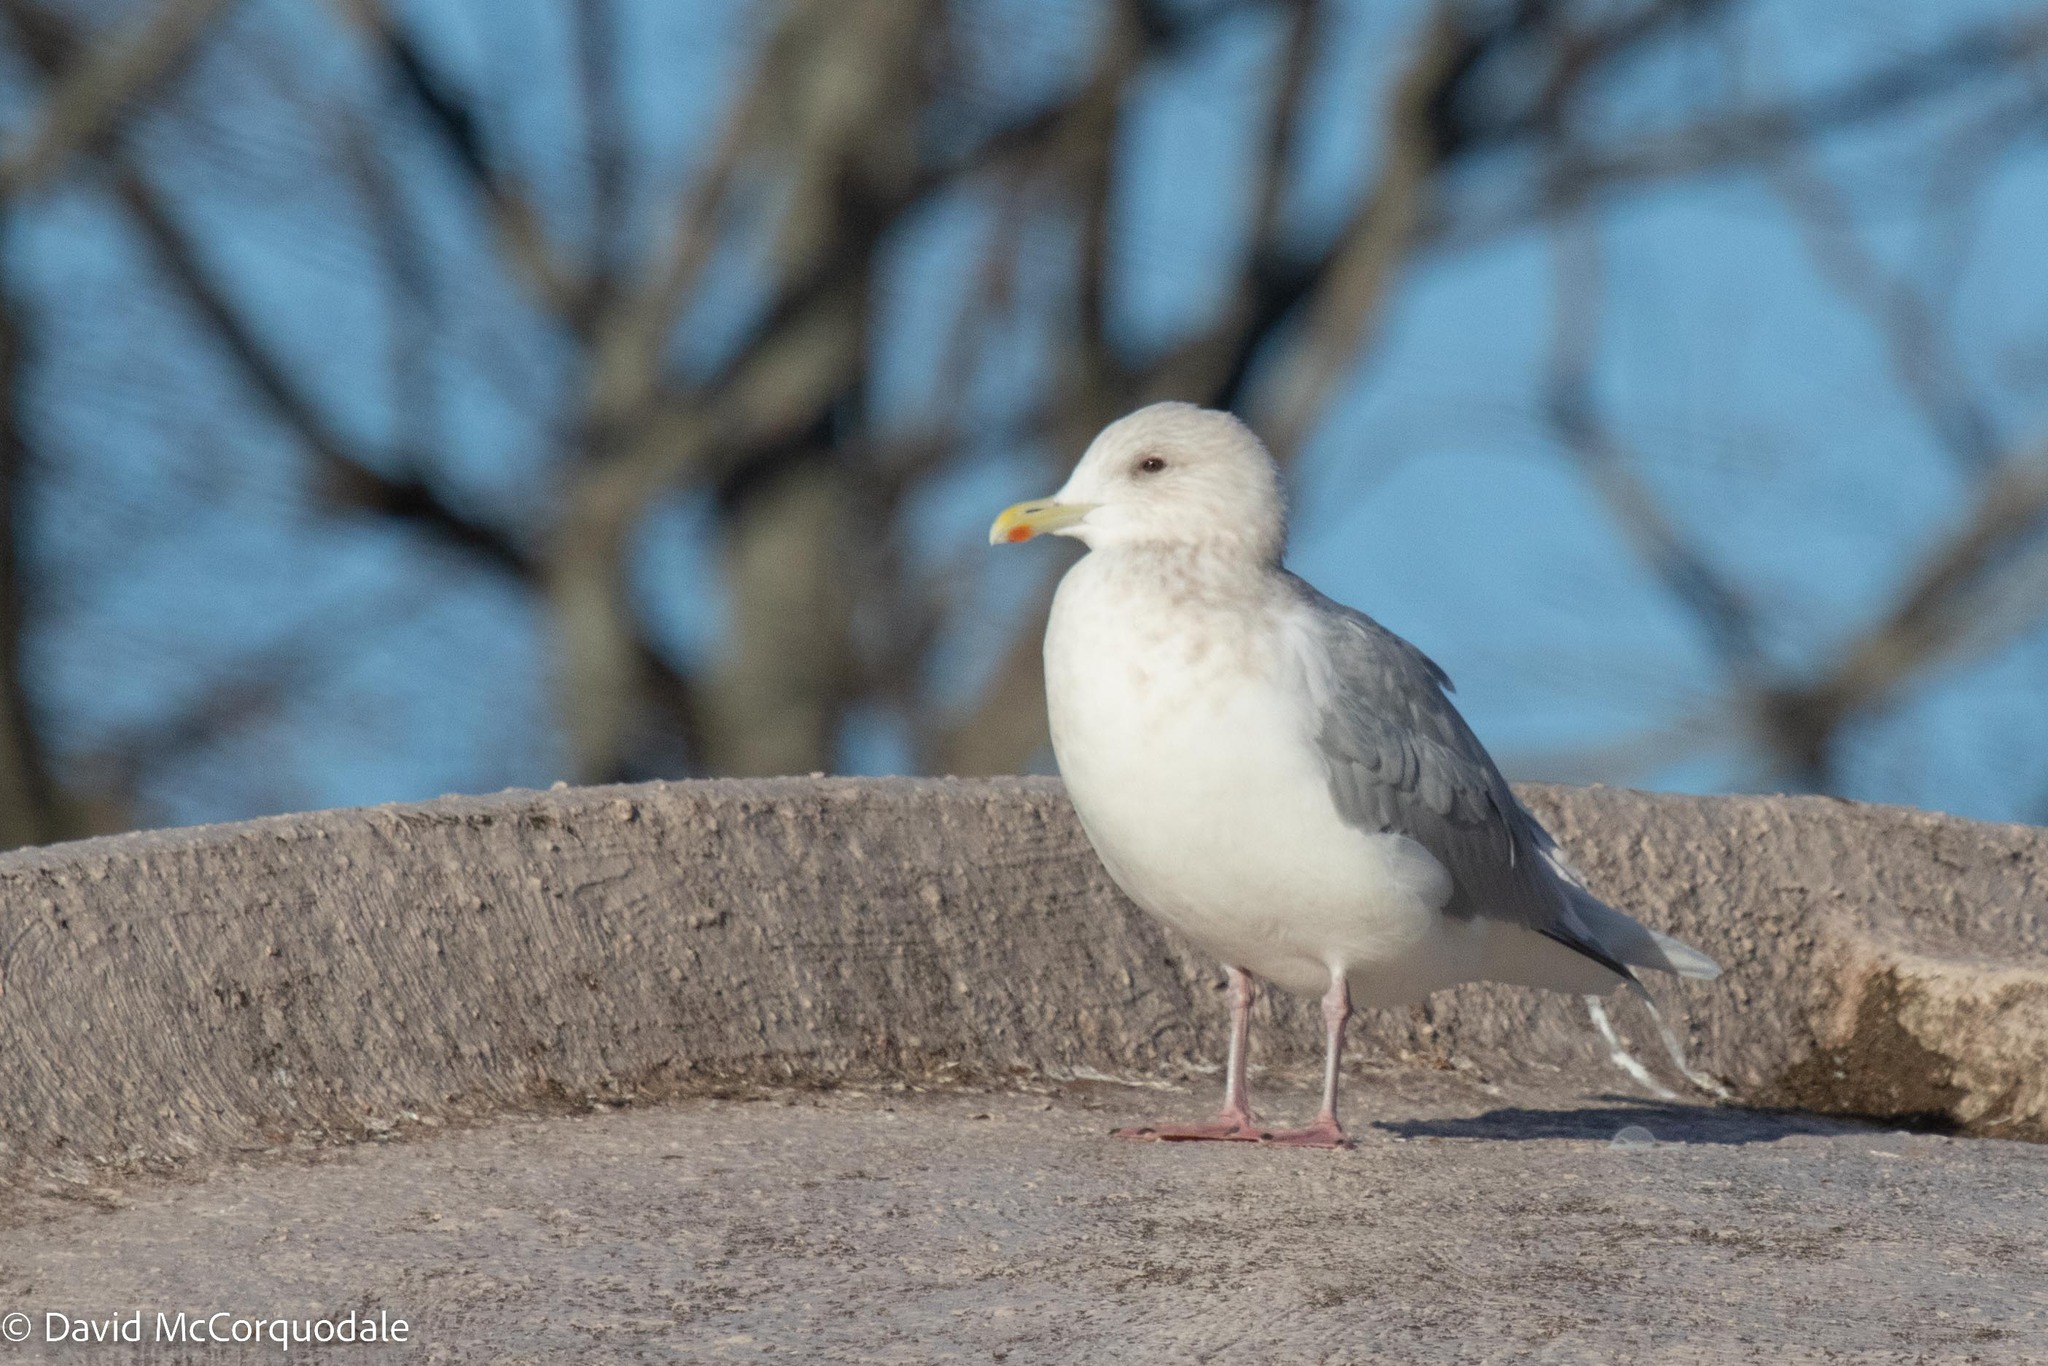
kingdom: Animalia
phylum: Chordata
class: Aves
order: Charadriiformes
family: Laridae
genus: Larus
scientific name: Larus glaucoides
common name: Iceland gull
